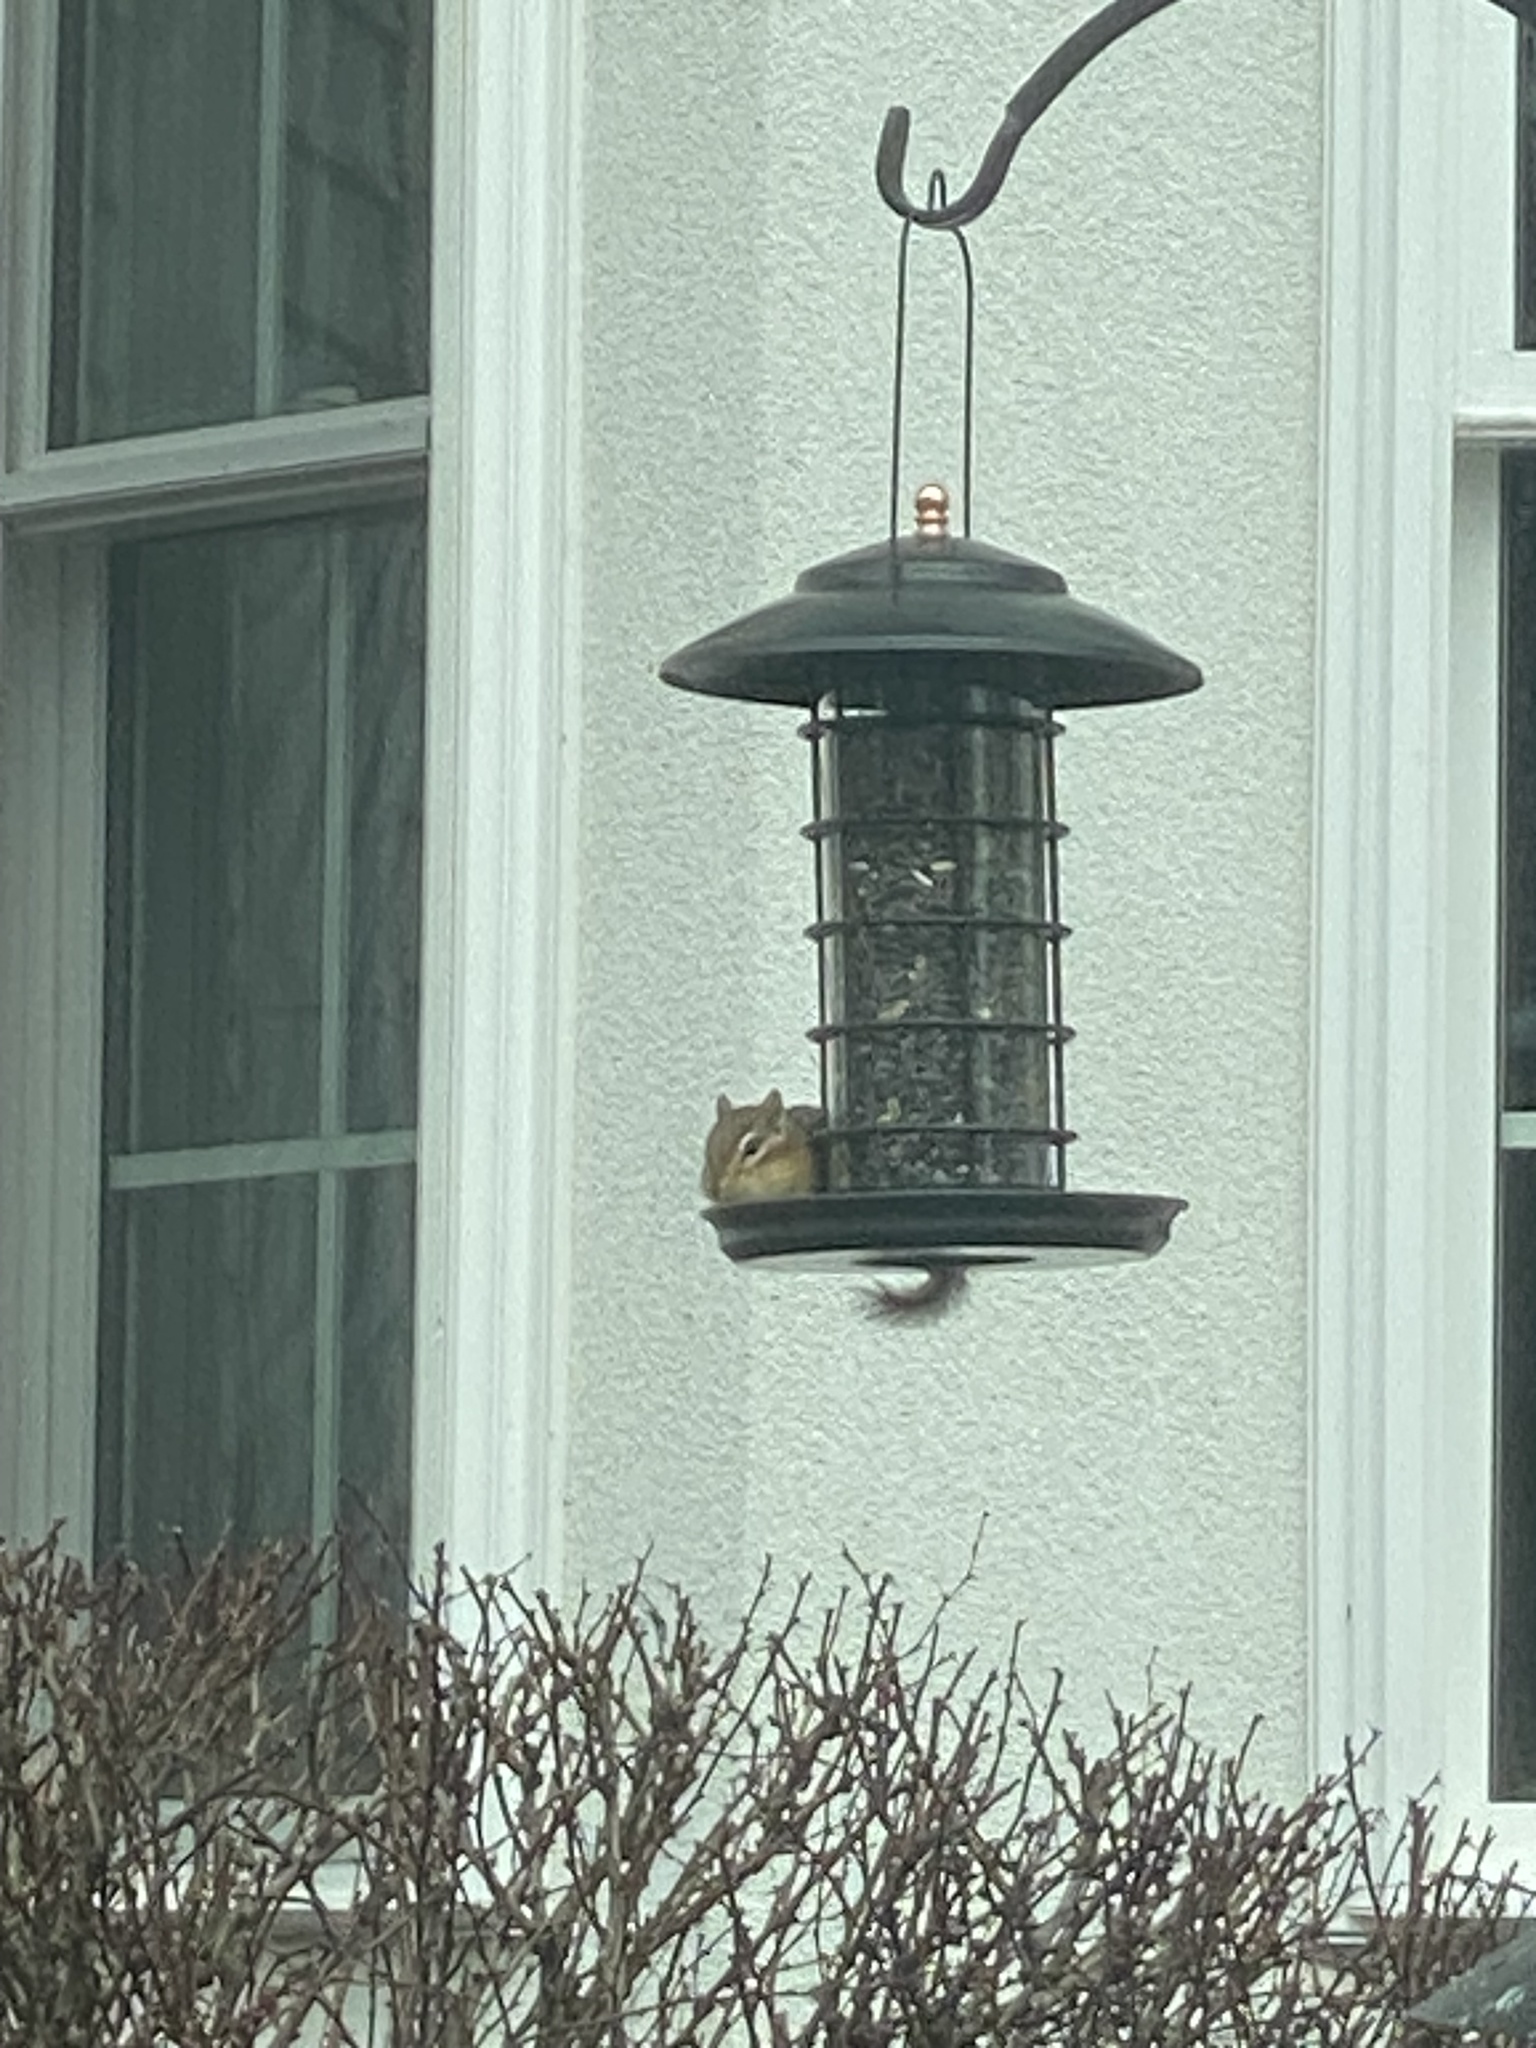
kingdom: Animalia
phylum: Chordata
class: Mammalia
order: Rodentia
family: Sciuridae
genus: Tamias
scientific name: Tamias striatus
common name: Eastern chipmunk
